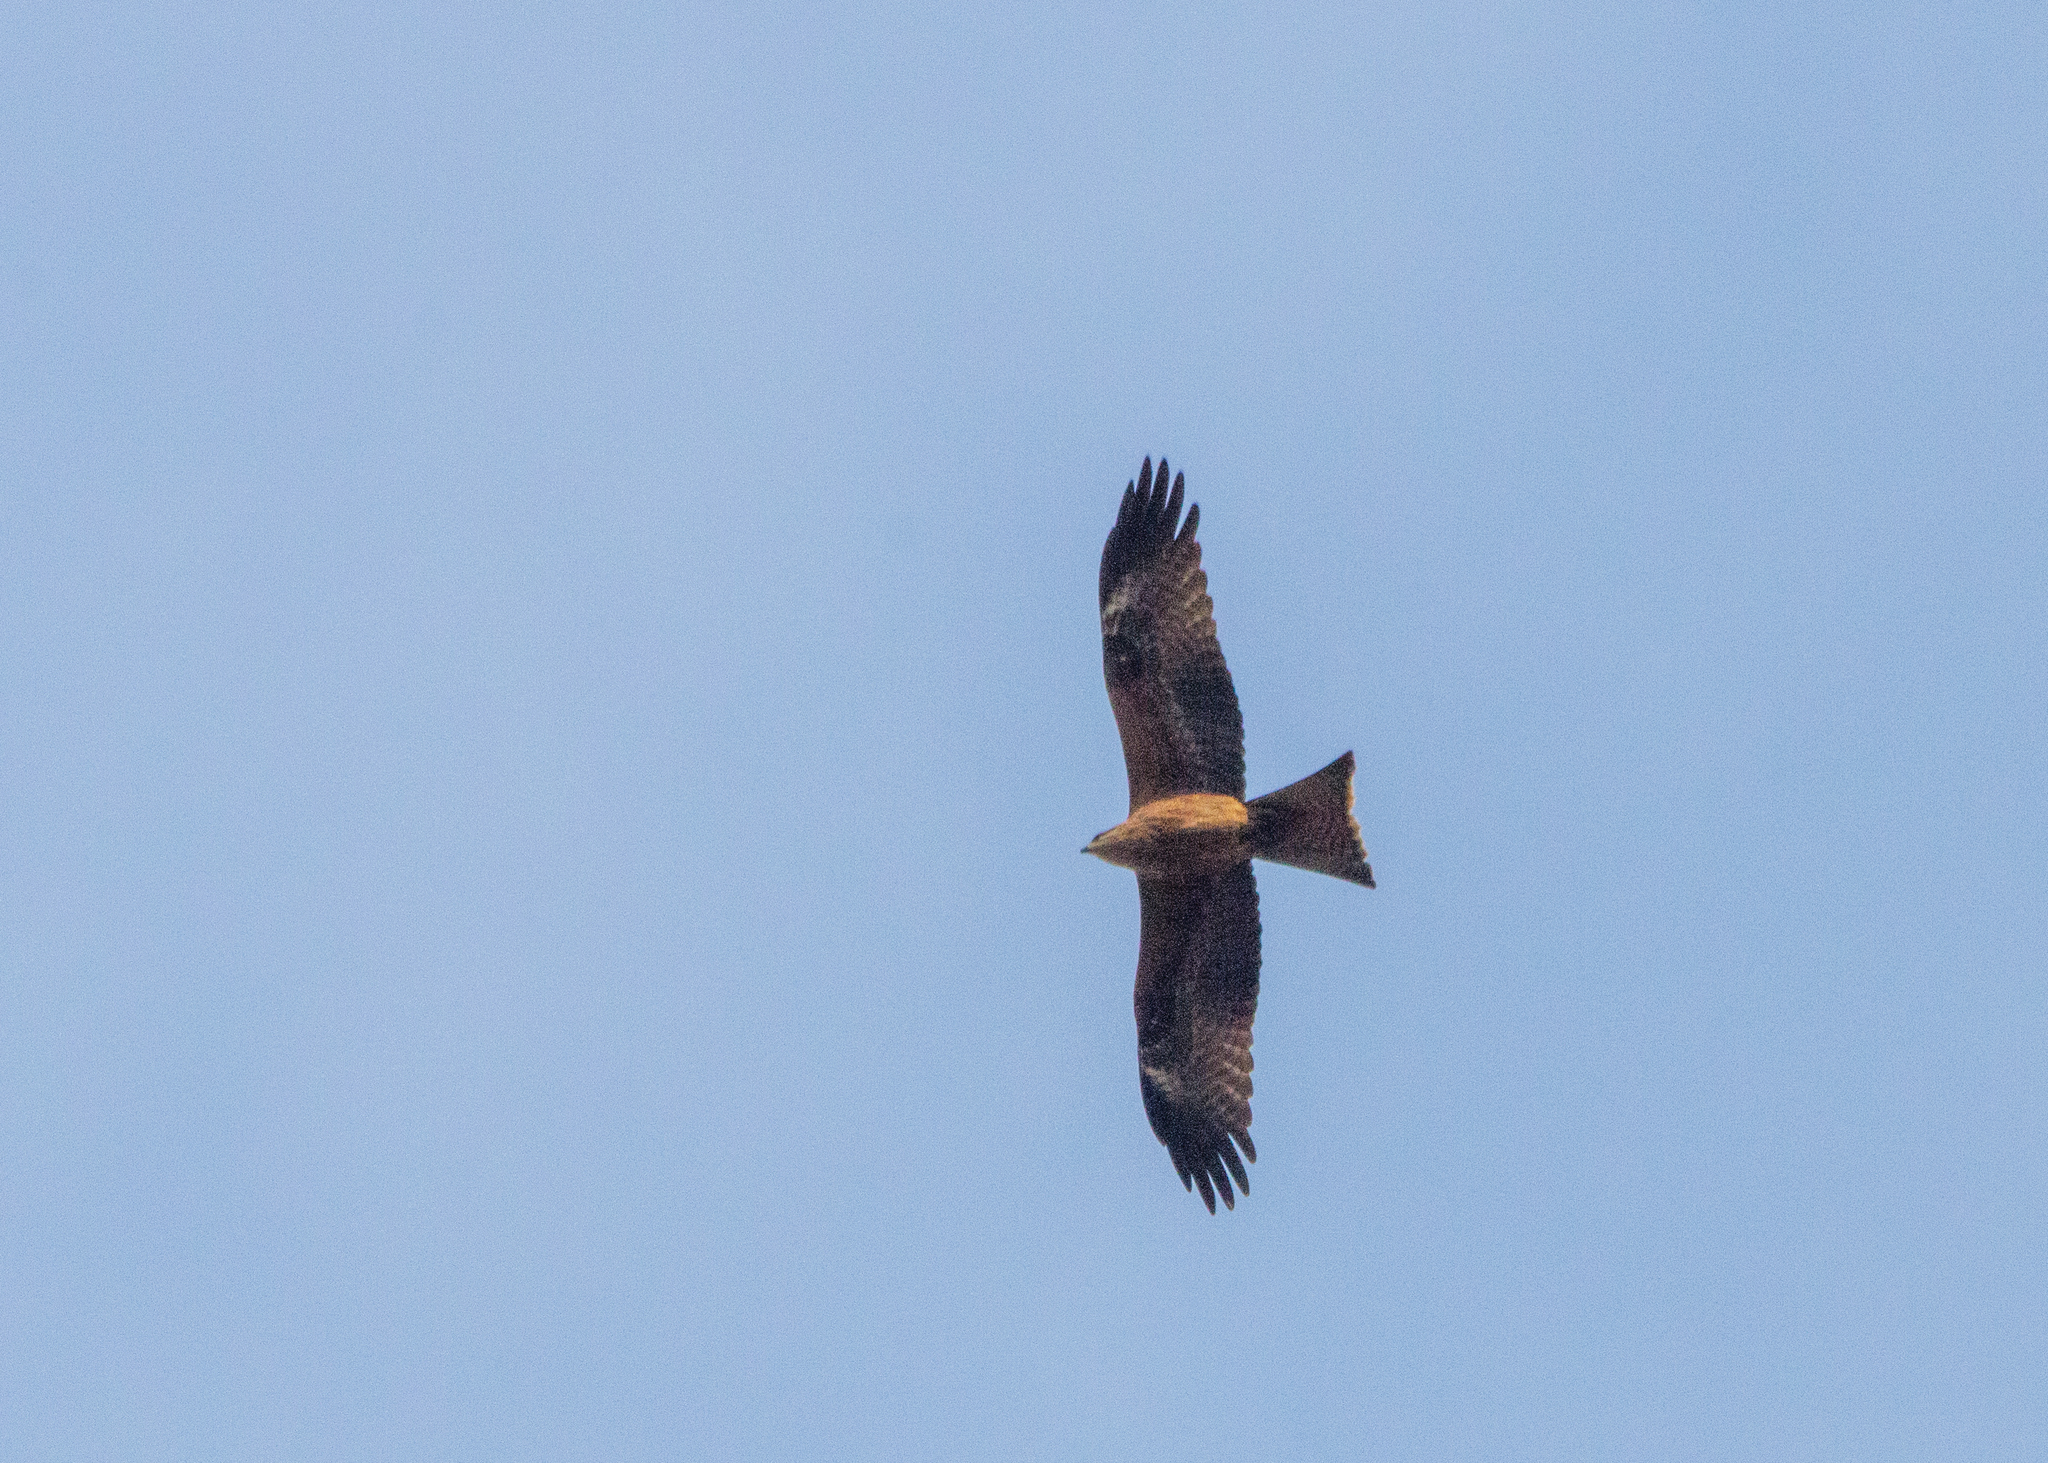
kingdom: Animalia
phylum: Chordata
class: Aves
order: Accipitriformes
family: Accipitridae
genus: Milvus
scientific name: Milvus migrans
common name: Black kite
